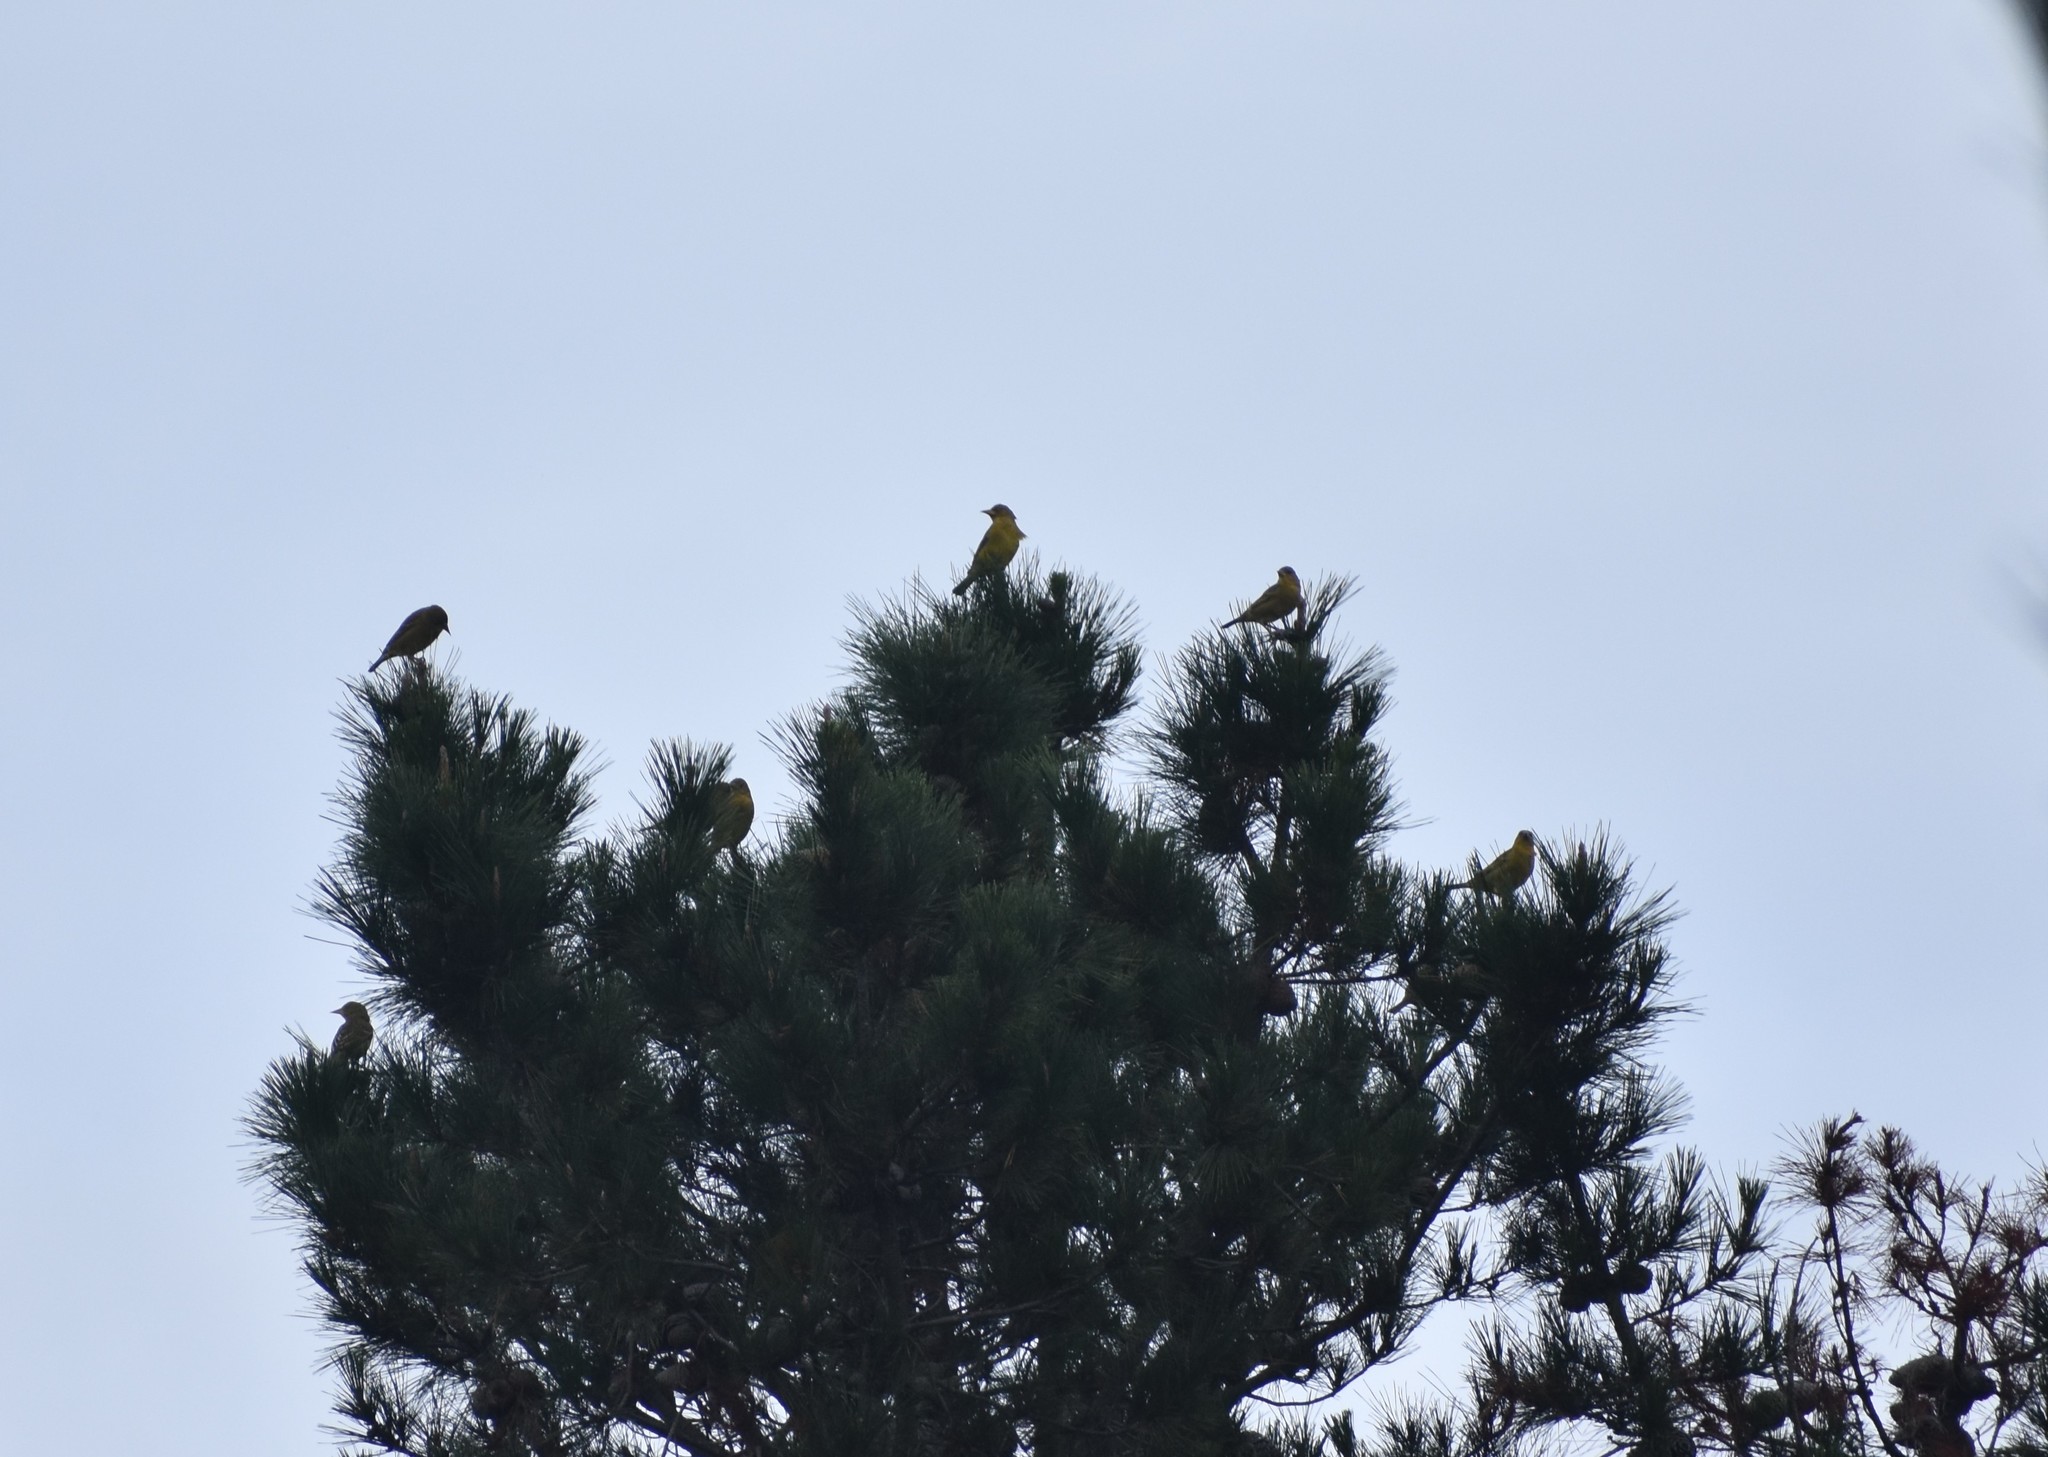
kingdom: Animalia
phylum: Chordata
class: Aves
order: Passeriformes
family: Ploceidae
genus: Ploceus
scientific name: Ploceus capensis
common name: Cape weaver
